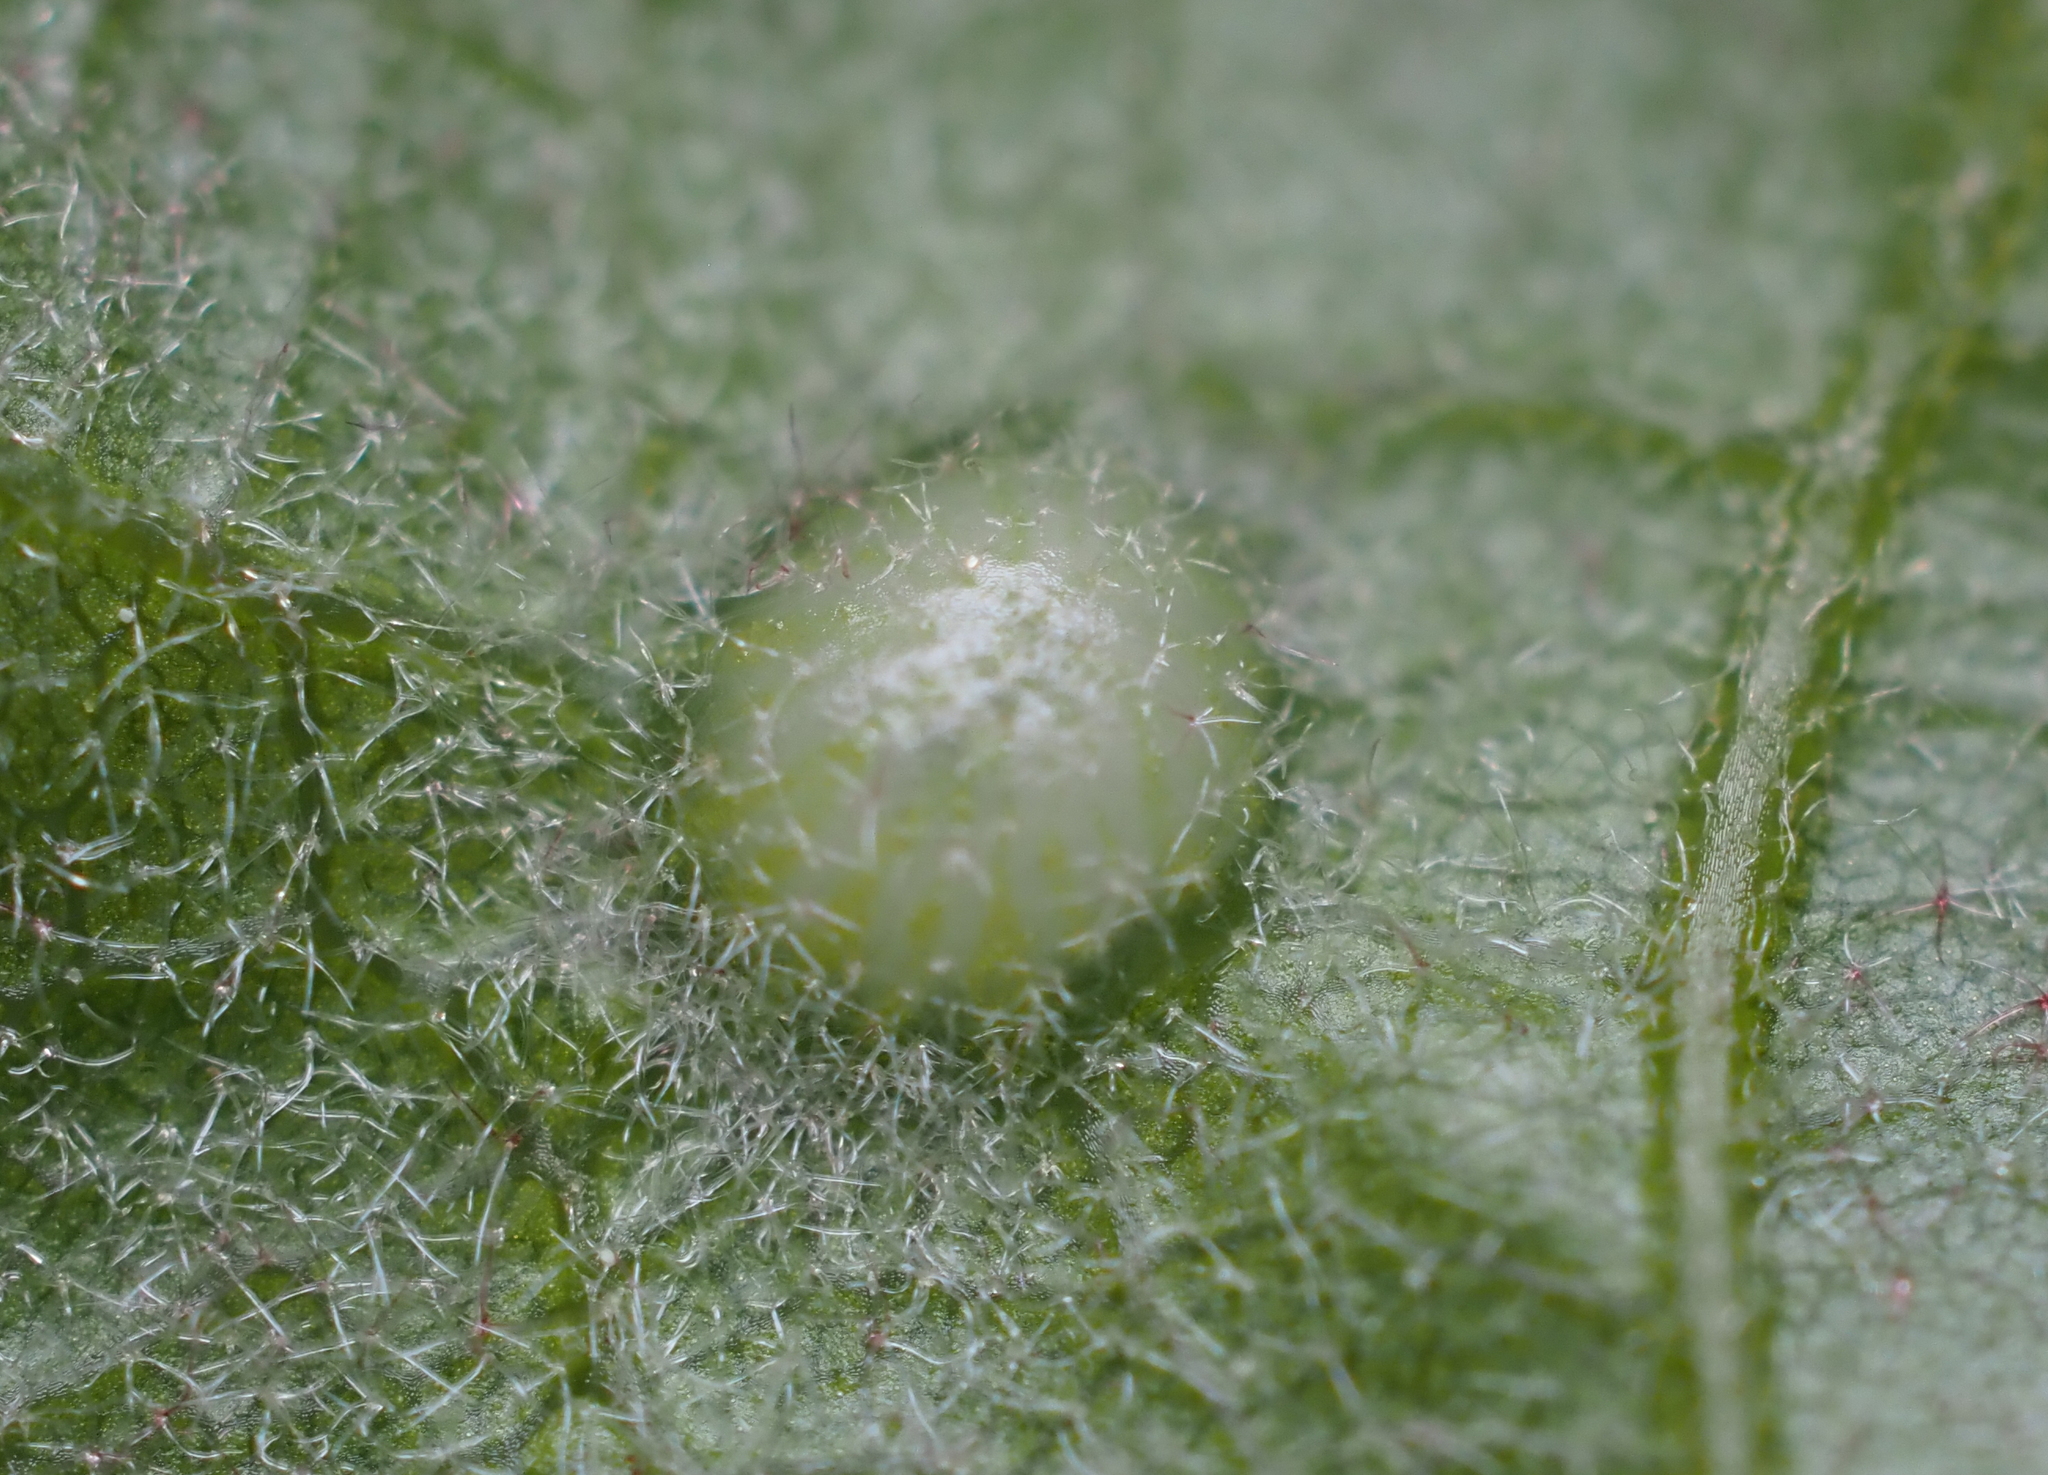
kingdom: Animalia
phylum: Arthropoda
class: Insecta
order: Hymenoptera
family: Cynipidae
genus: Dryocosmus
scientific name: Dryocosmus
